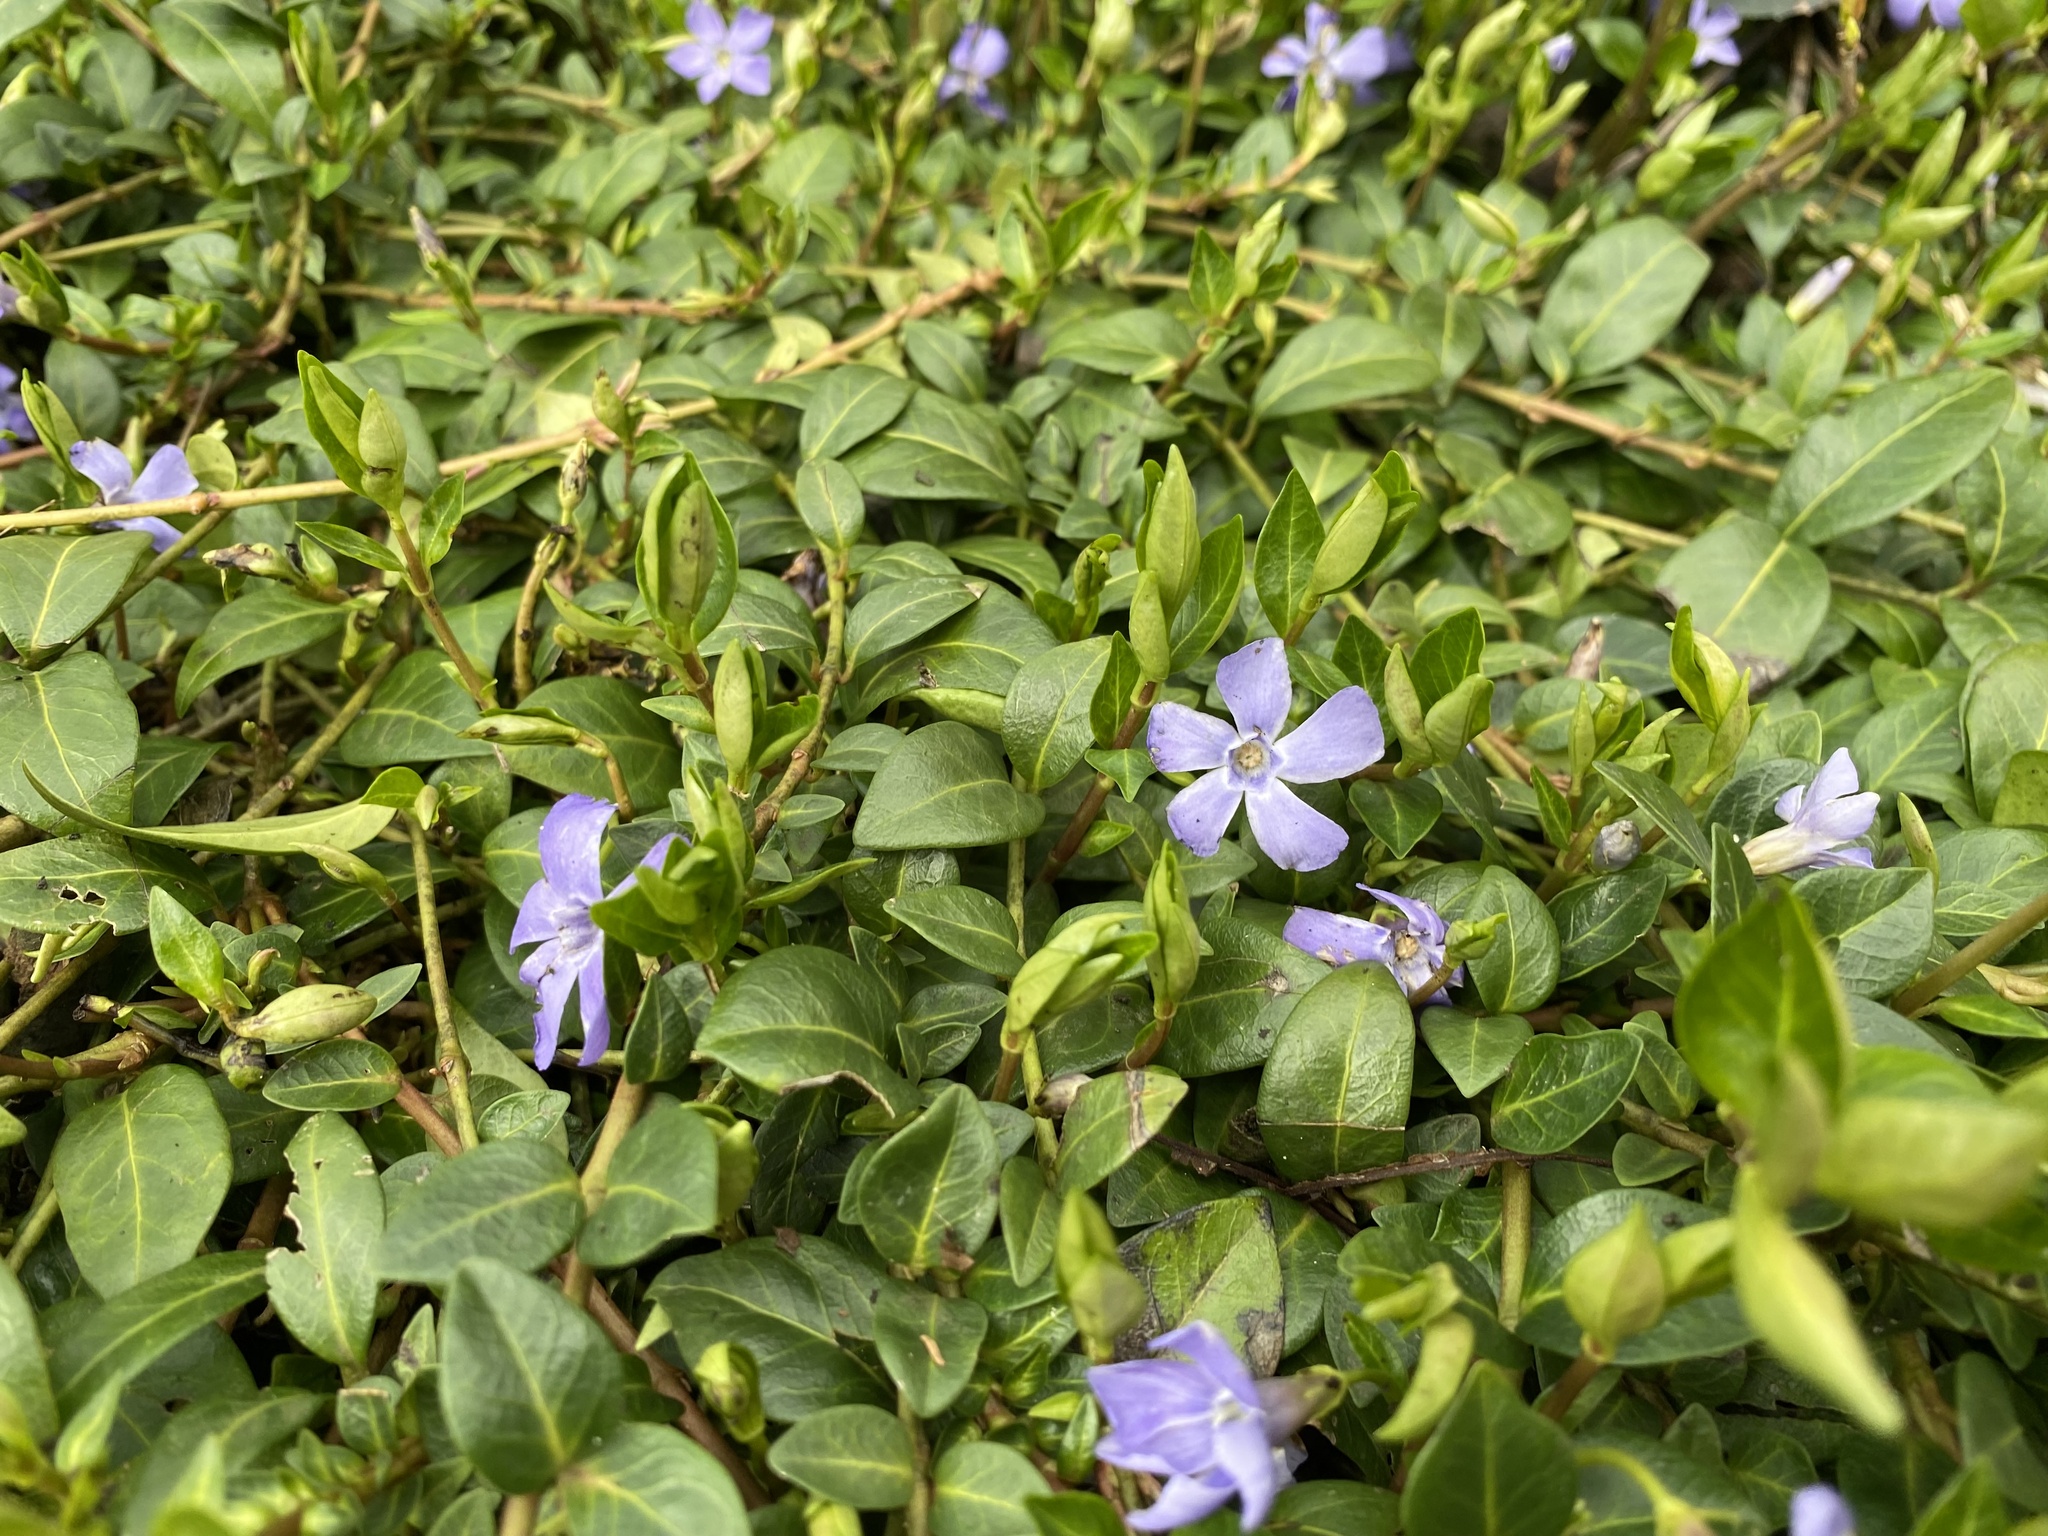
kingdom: Plantae
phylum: Tracheophyta
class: Magnoliopsida
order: Gentianales
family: Apocynaceae
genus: Vinca
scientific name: Vinca minor
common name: Lesser periwinkle
